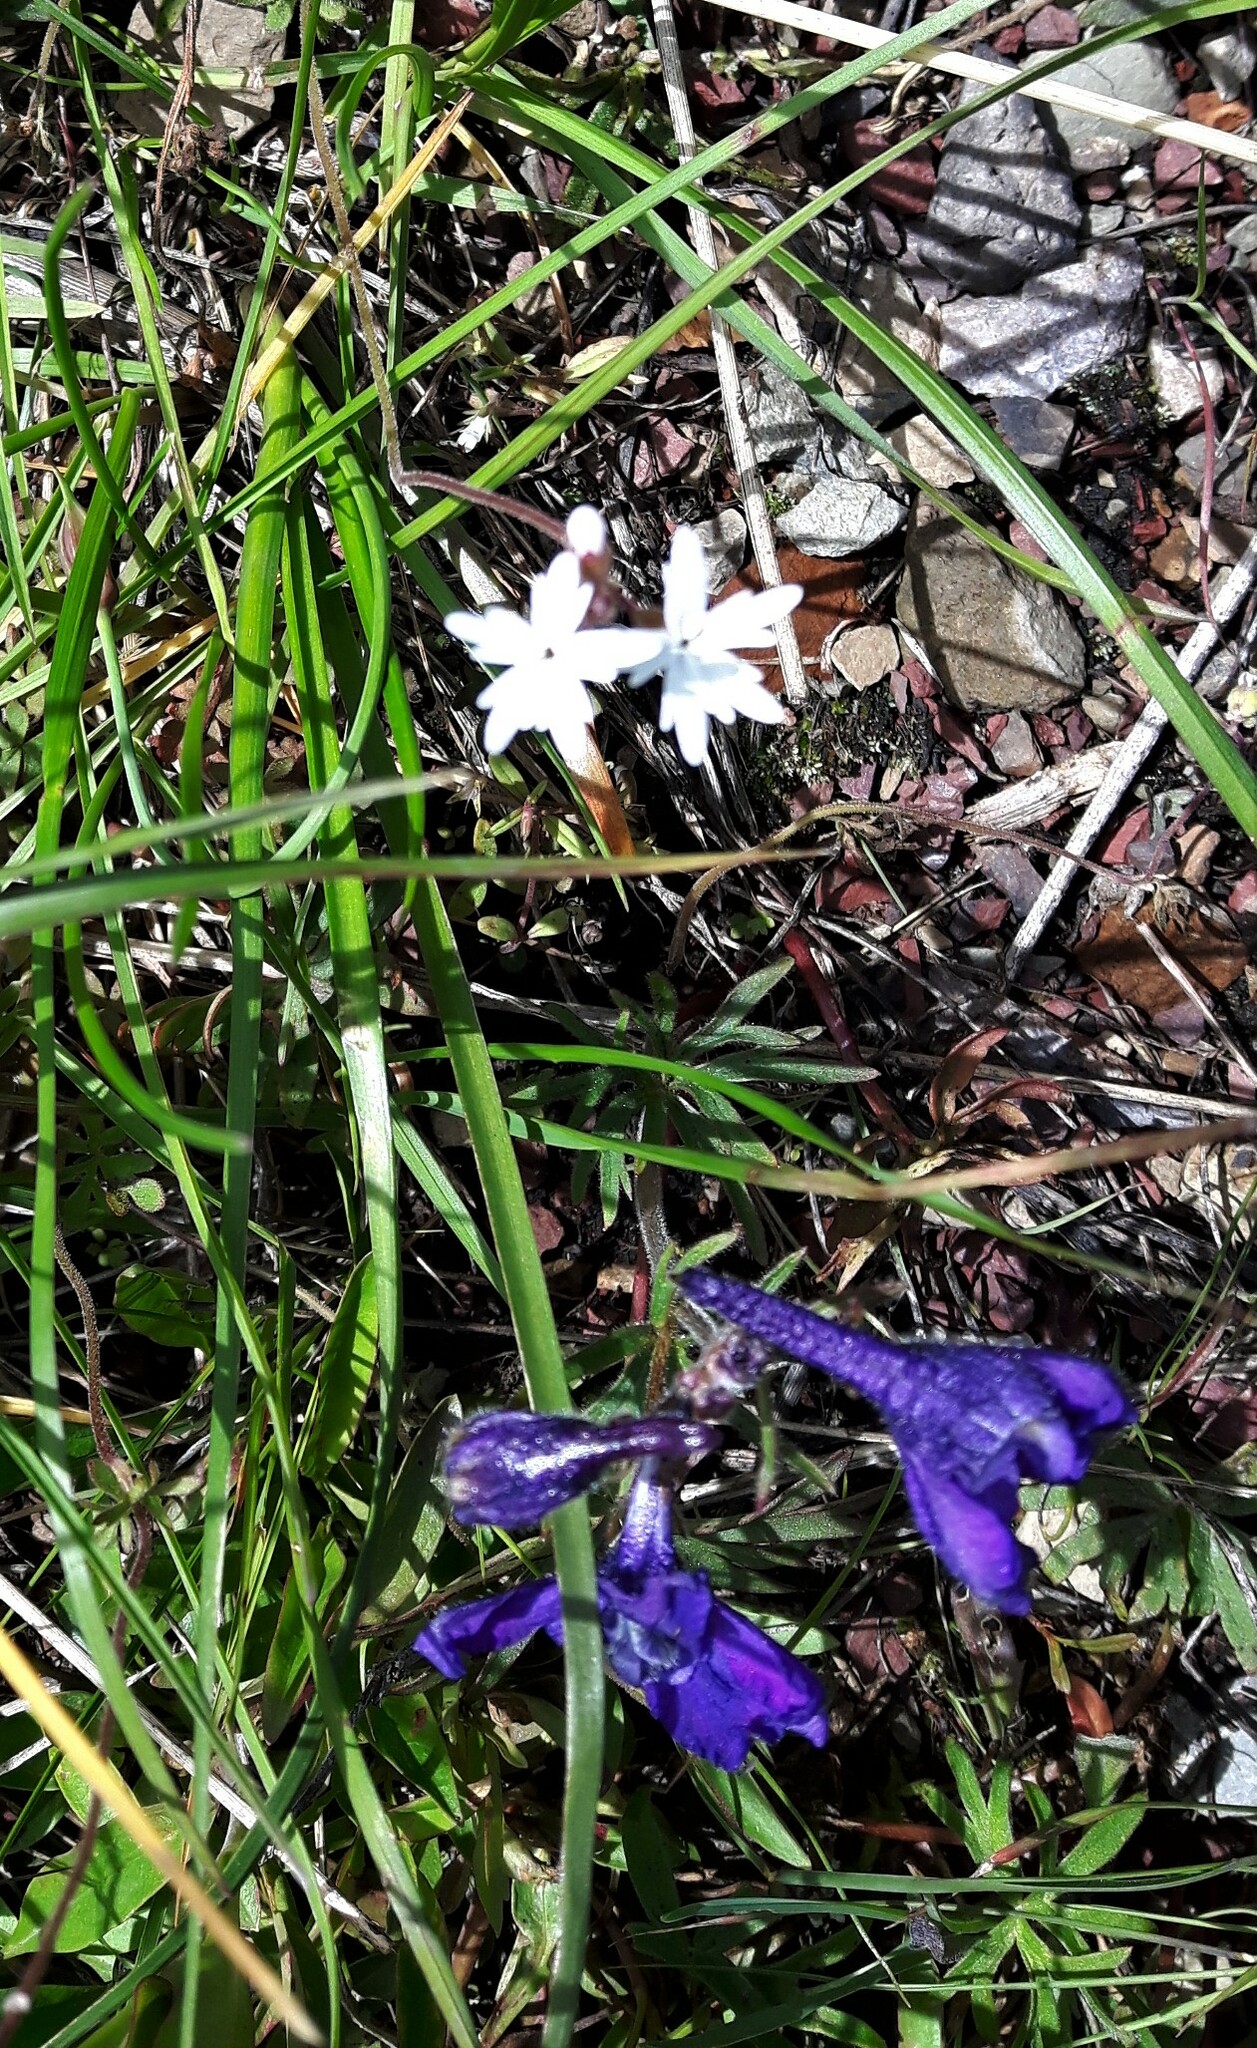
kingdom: Plantae
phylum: Tracheophyta
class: Magnoliopsida
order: Saxifragales
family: Saxifragaceae
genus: Lithophragma
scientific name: Lithophragma parviflorum
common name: Small-flowered fringe-cup
